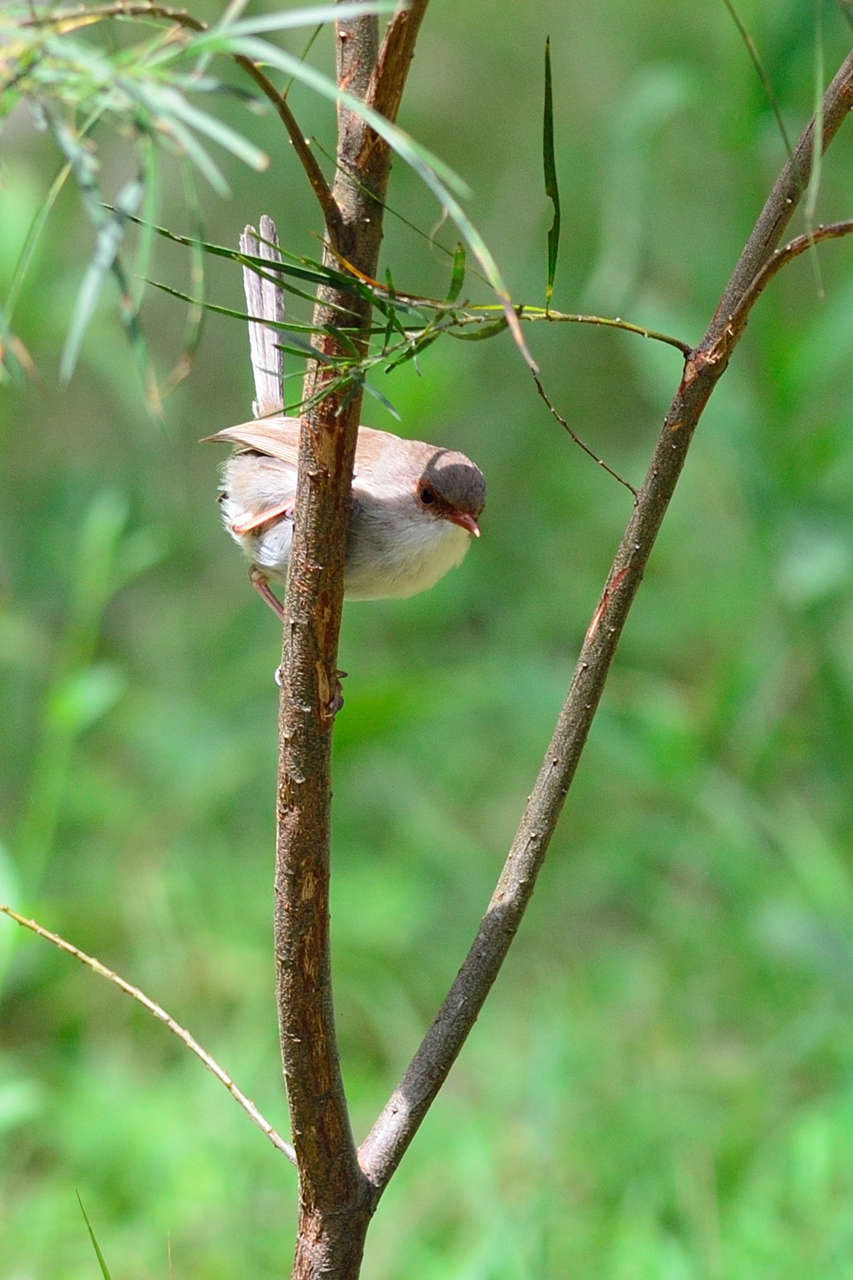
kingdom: Animalia
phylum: Chordata
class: Aves
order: Passeriformes
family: Maluridae
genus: Malurus
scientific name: Malurus cyaneus
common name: Superb fairywren
